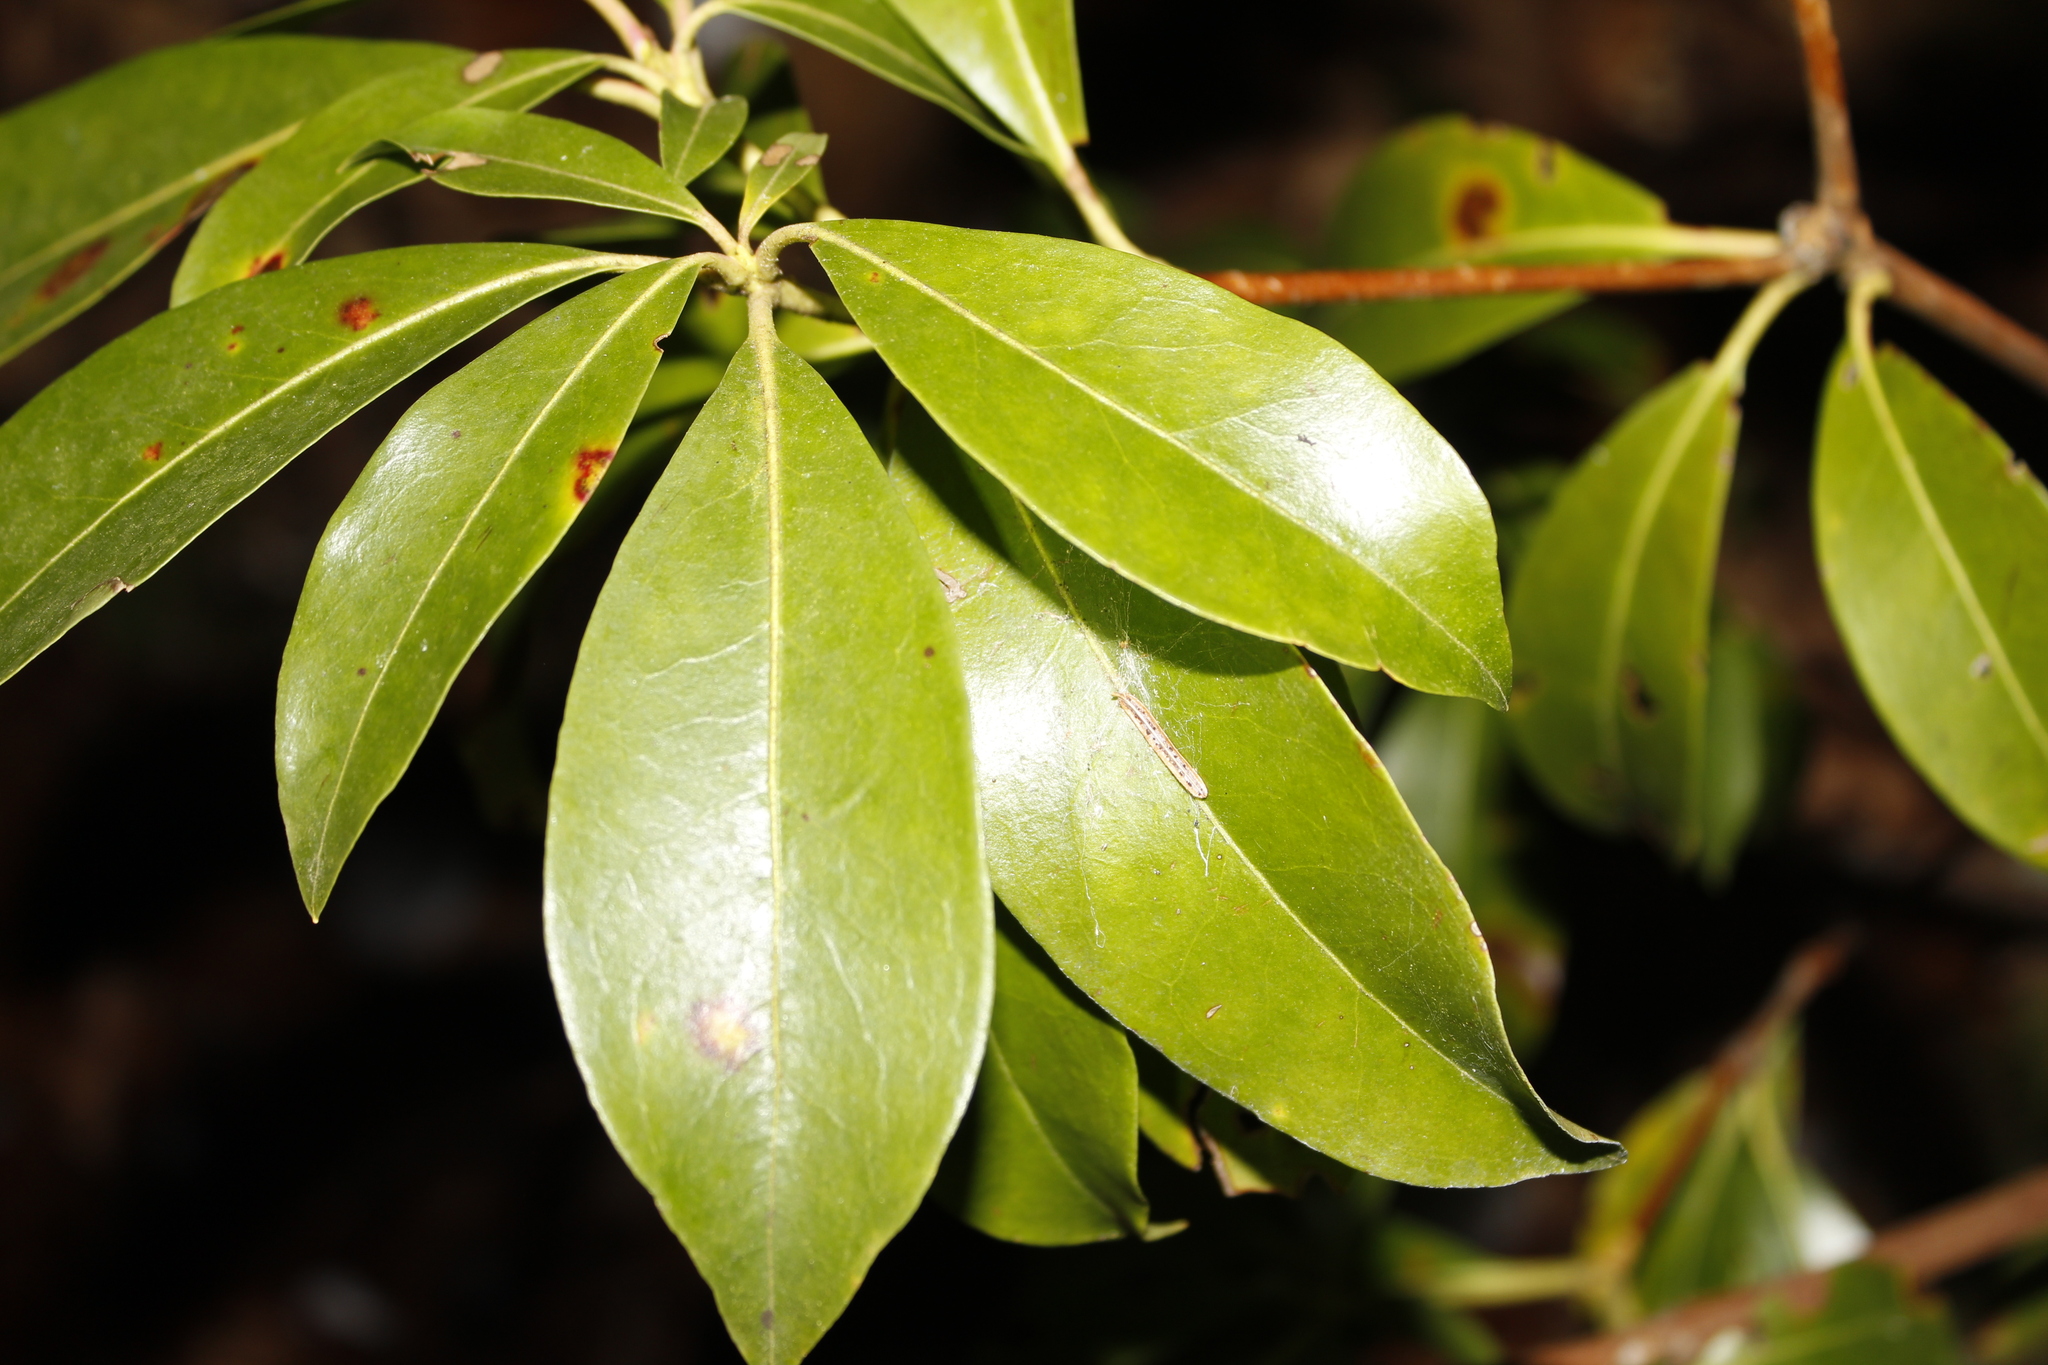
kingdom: Plantae
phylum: Tracheophyta
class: Magnoliopsida
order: Ericales
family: Ericaceae
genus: Kalmia
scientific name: Kalmia latifolia
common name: Mountain-laurel
